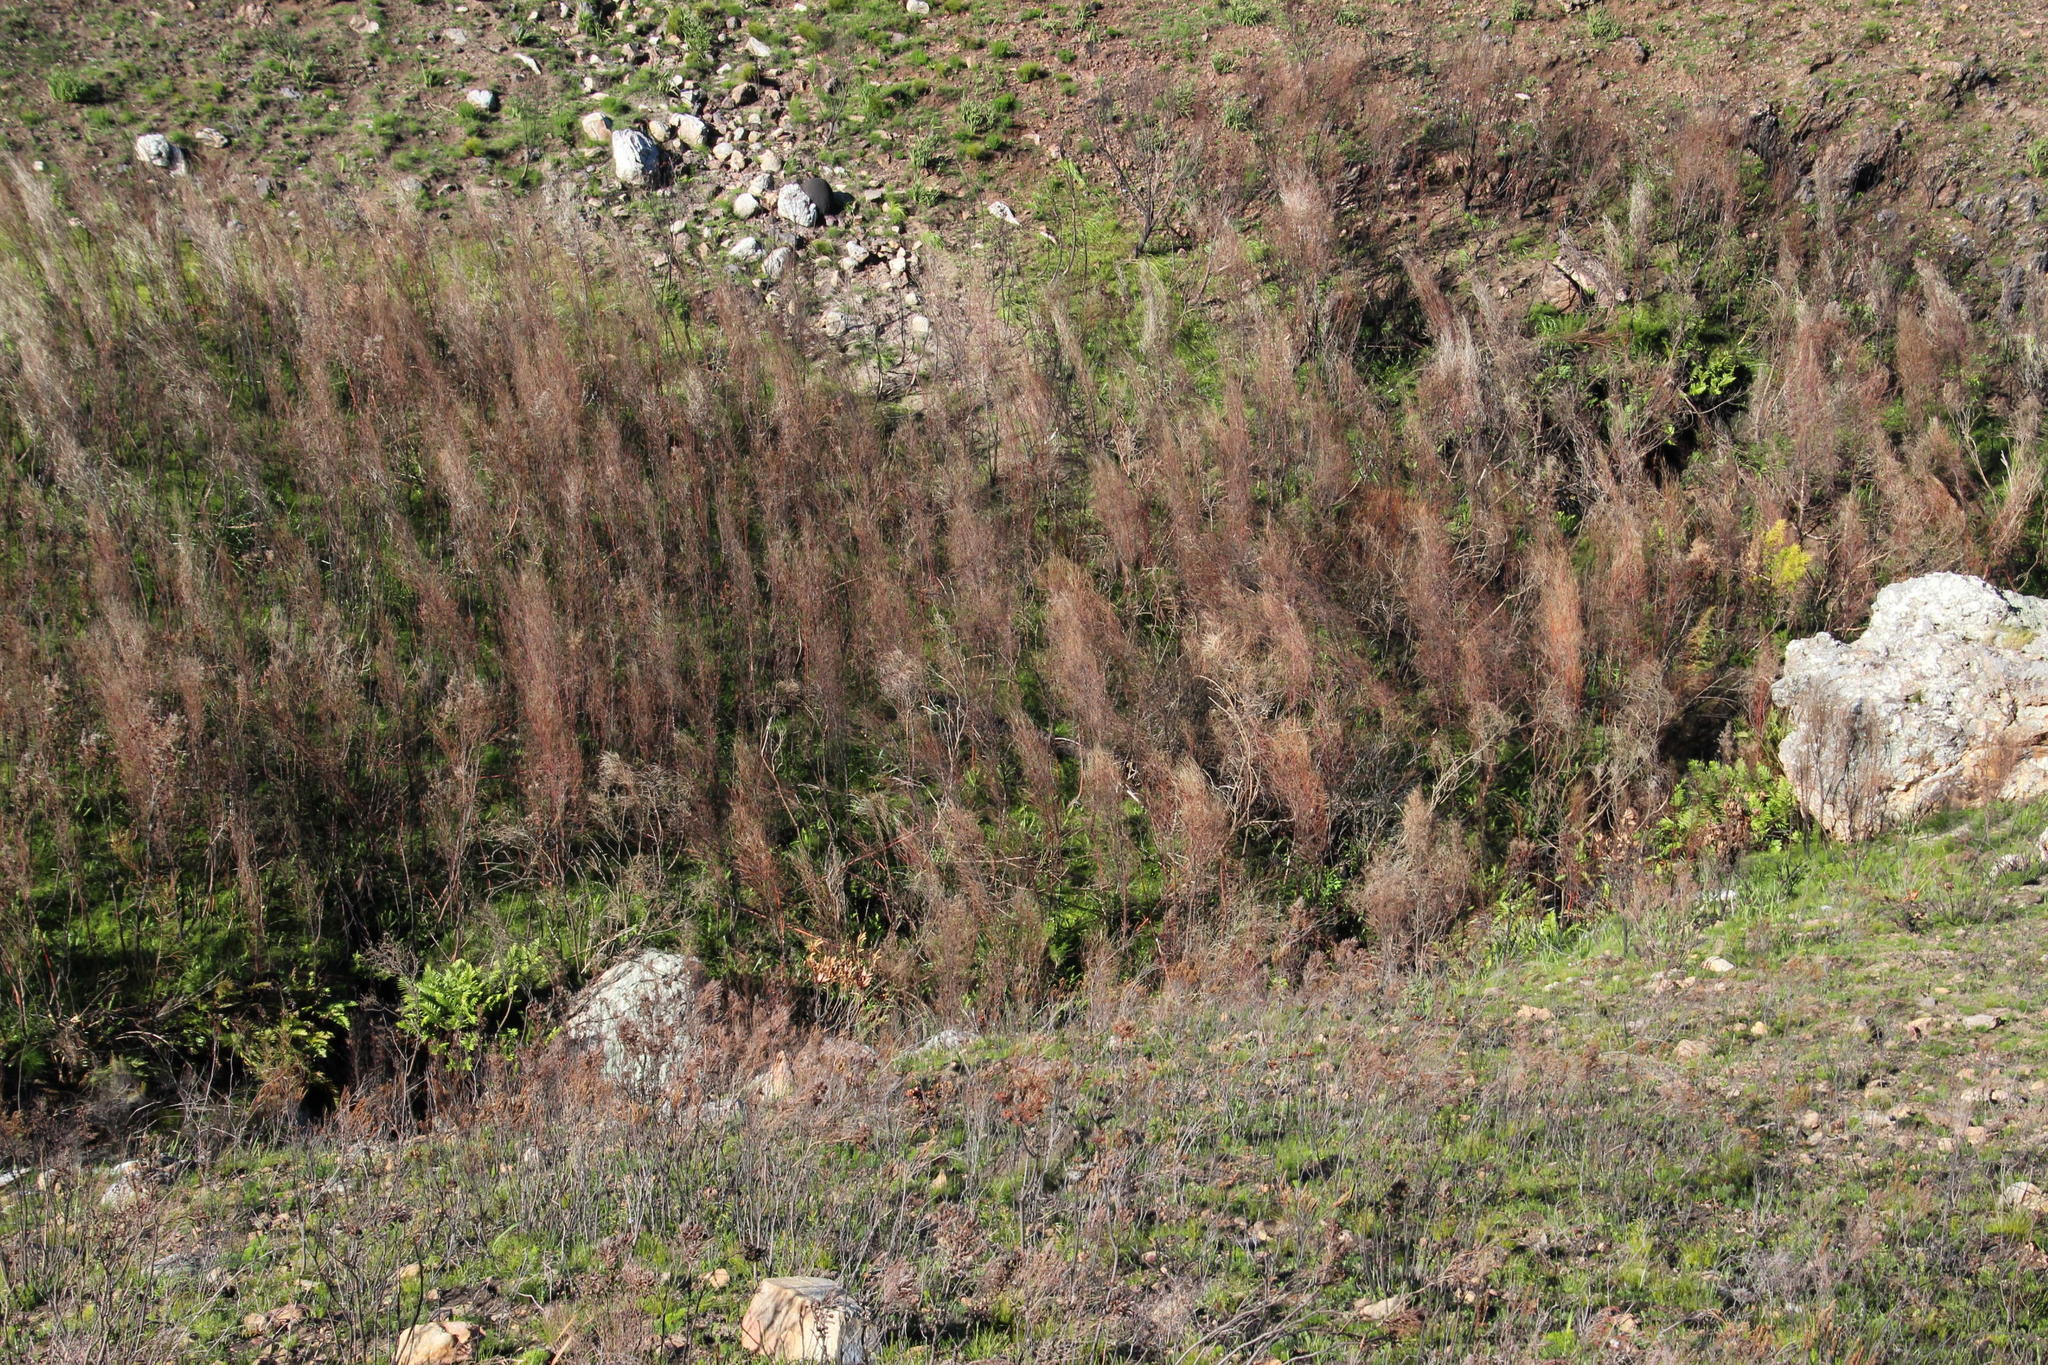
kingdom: Plantae
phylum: Tracheophyta
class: Magnoliopsida
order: Proteales
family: Proteaceae
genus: Leucadendron
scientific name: Leucadendron salicifolium
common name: Common stream conebush
